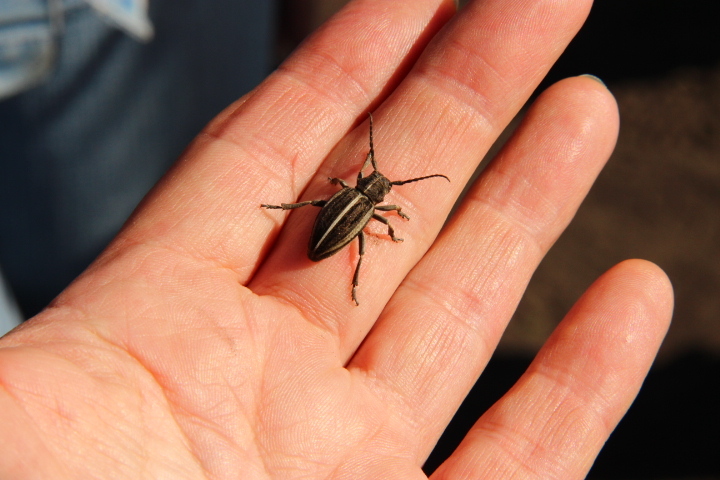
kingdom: Animalia
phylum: Arthropoda
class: Insecta
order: Coleoptera
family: Cerambycidae
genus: Dorcadion
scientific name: Dorcadion holosericeum
